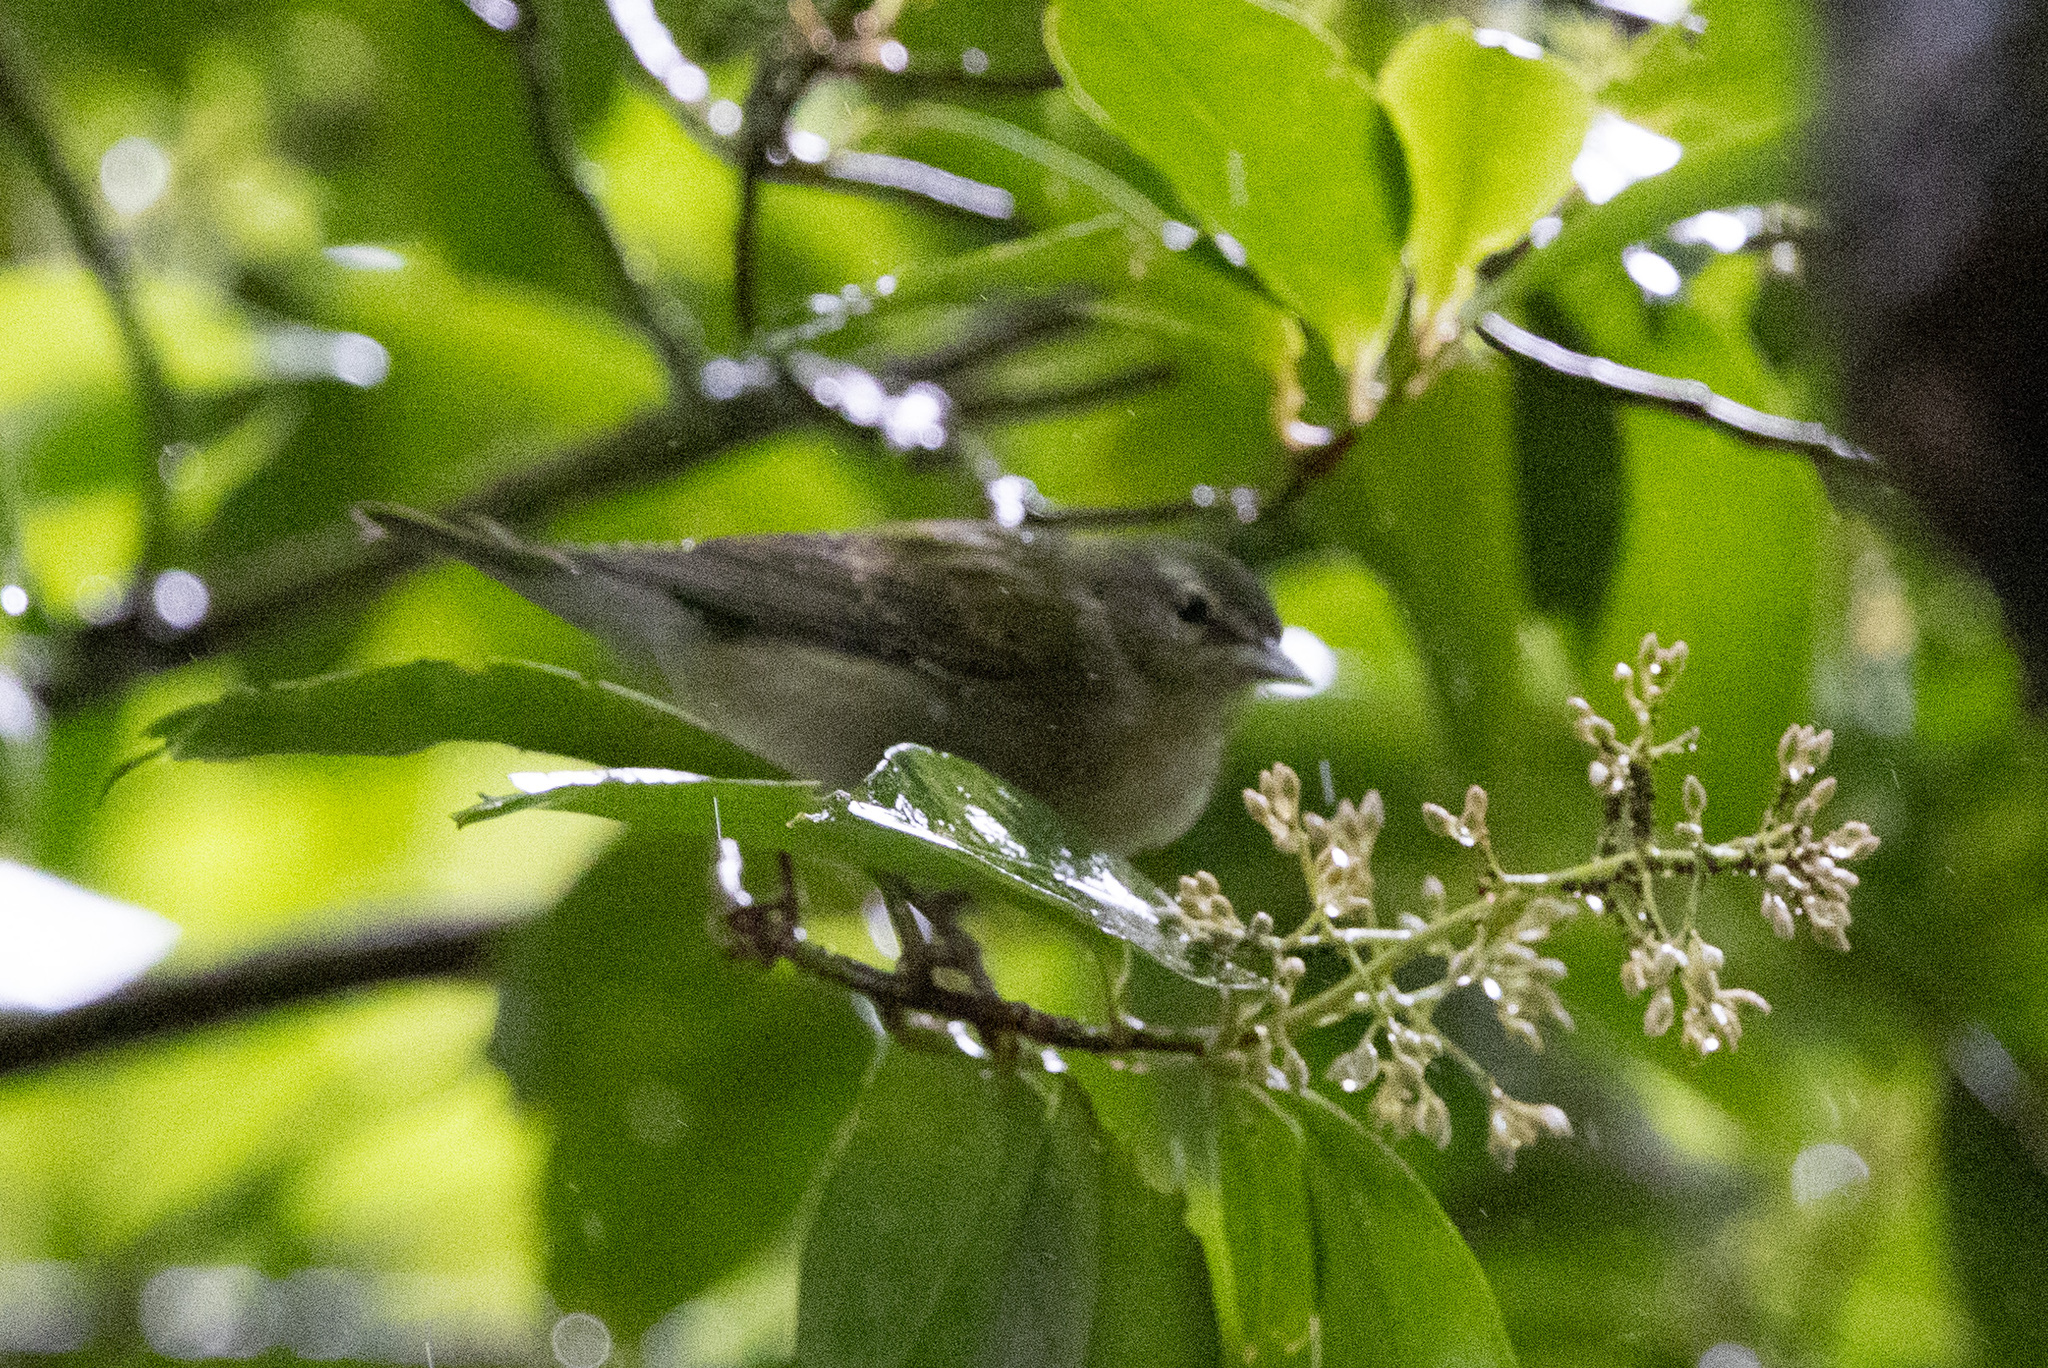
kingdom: Animalia
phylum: Chordata
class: Aves
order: Passeriformes
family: Parulidae
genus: Leiothlypis
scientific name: Leiothlypis peregrina
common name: Tennessee warbler
